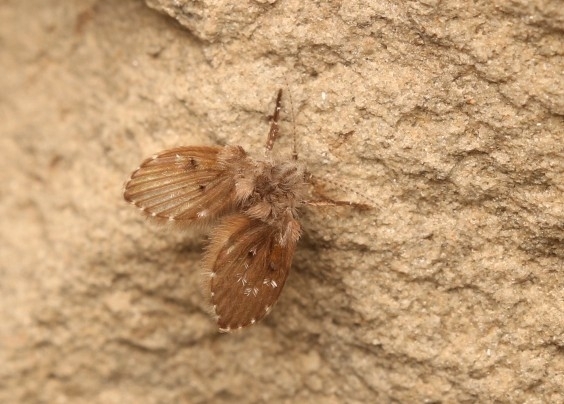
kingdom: Animalia
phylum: Arthropoda
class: Insecta
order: Diptera
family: Psychodidae
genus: Clogmia
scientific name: Clogmia albipunctatus
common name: White-spotted moth fly
